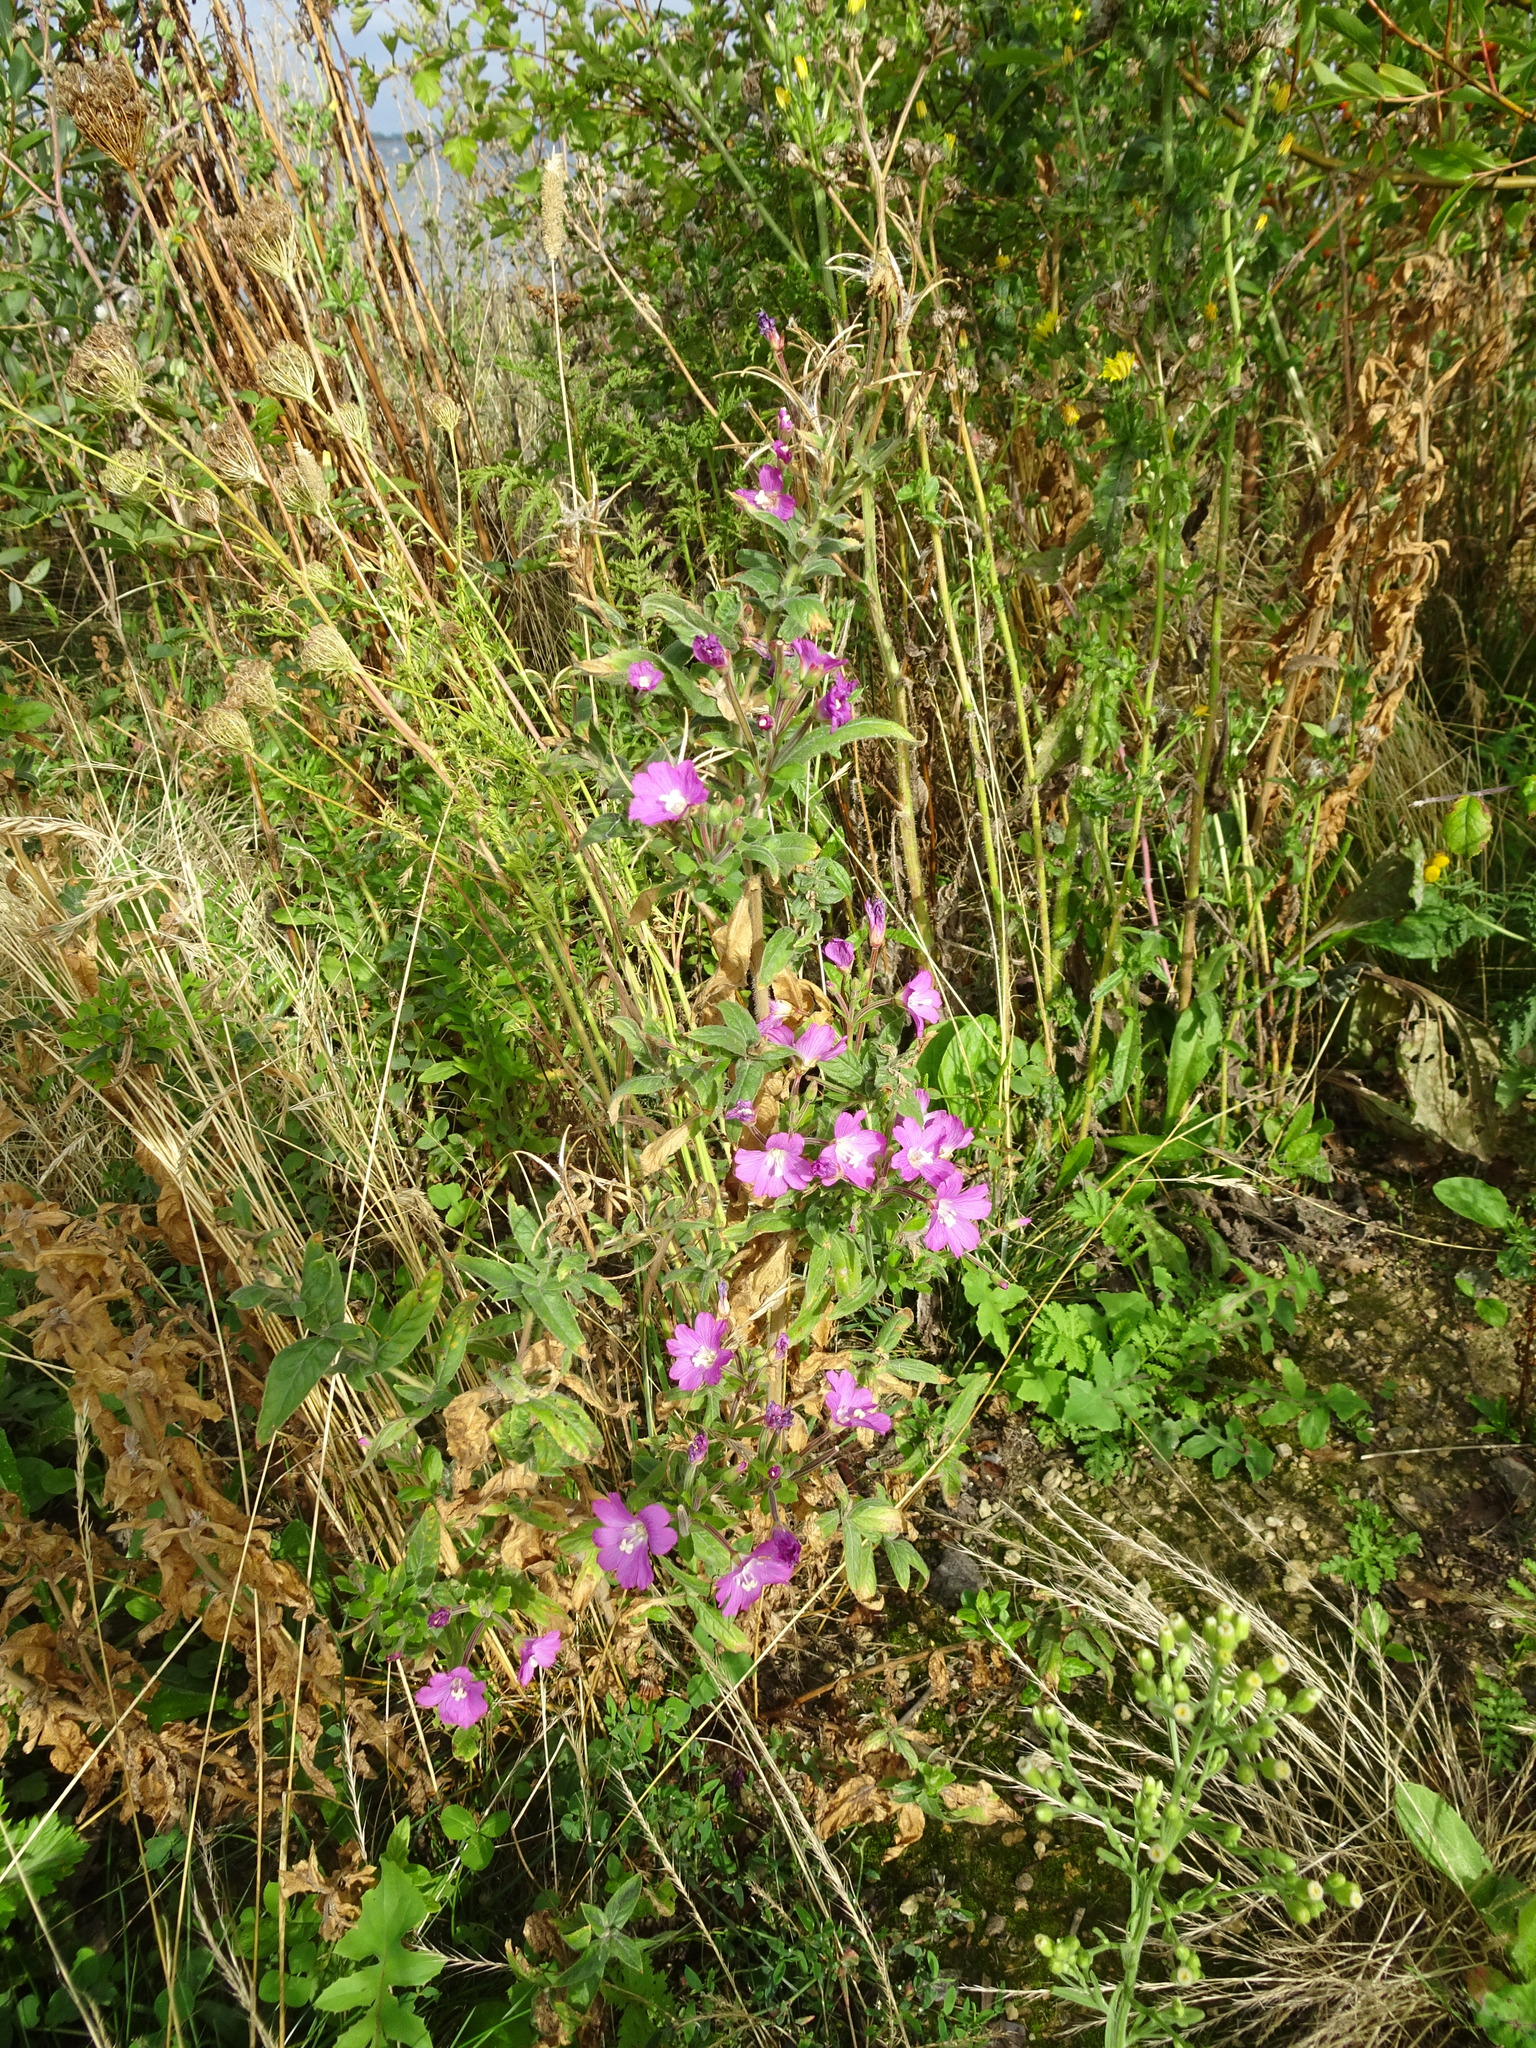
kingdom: Plantae
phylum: Tracheophyta
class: Magnoliopsida
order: Myrtales
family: Onagraceae
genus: Epilobium
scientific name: Epilobium hirsutum
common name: Great willowherb
